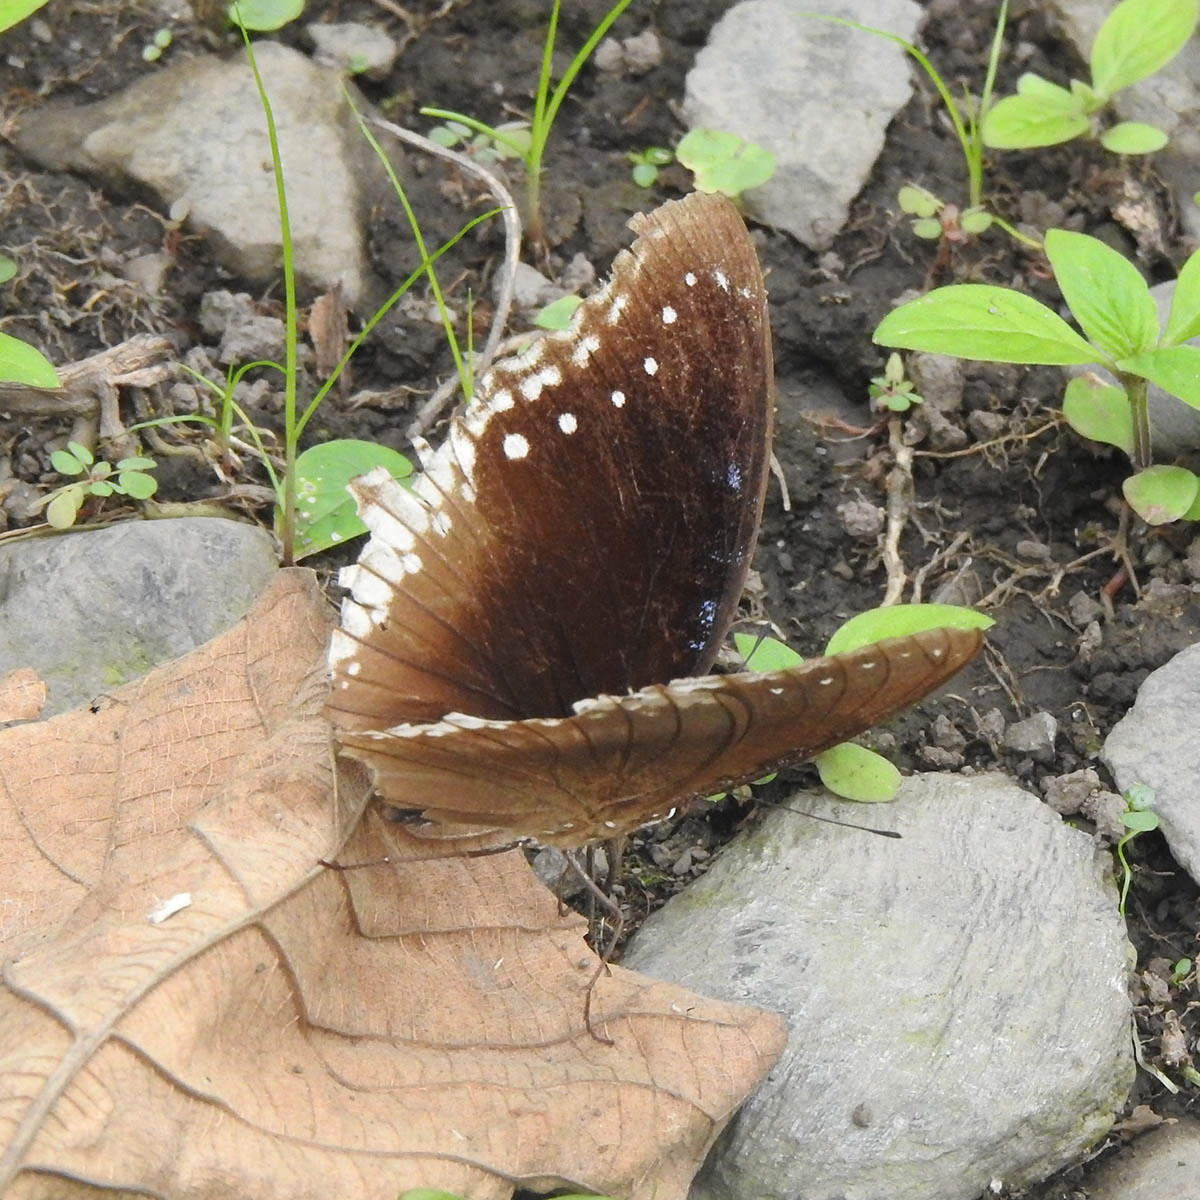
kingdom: Animalia
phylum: Arthropoda
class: Insecta
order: Lepidoptera
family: Nymphalidae
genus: Hypolimnas
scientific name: Hypolimnas bolina
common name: Great eggfly
